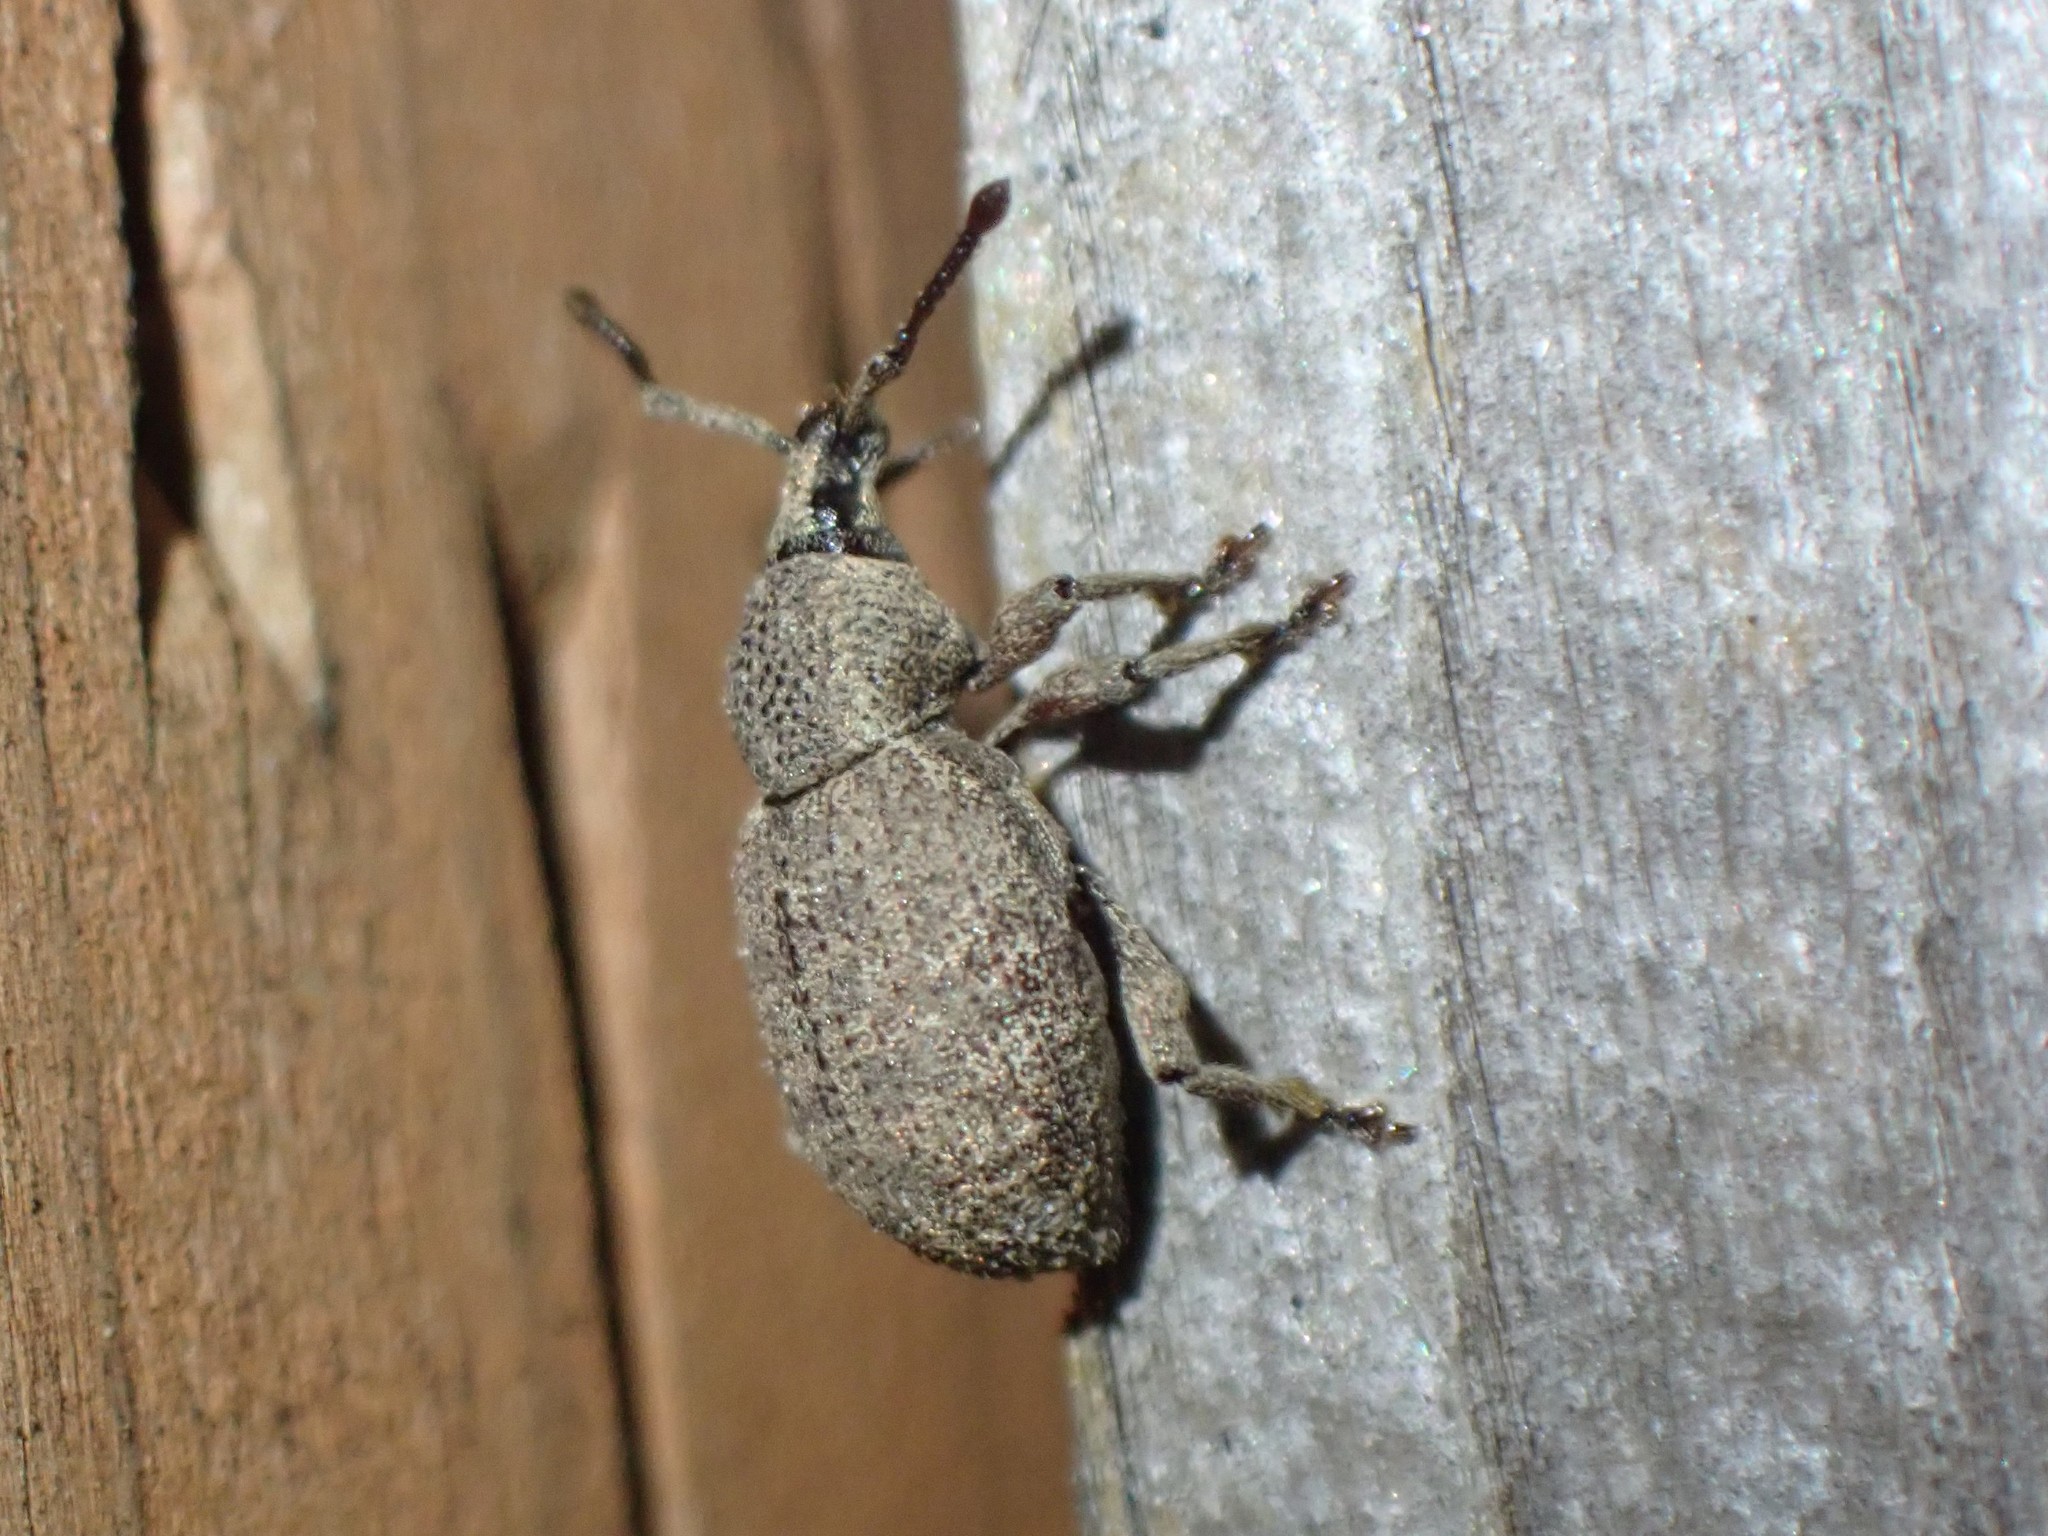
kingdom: Animalia
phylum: Arthropoda
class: Insecta
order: Coleoptera
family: Curculionidae
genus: Otiorhynchus
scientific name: Otiorhynchus singularis
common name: Clay-coloured weevil
